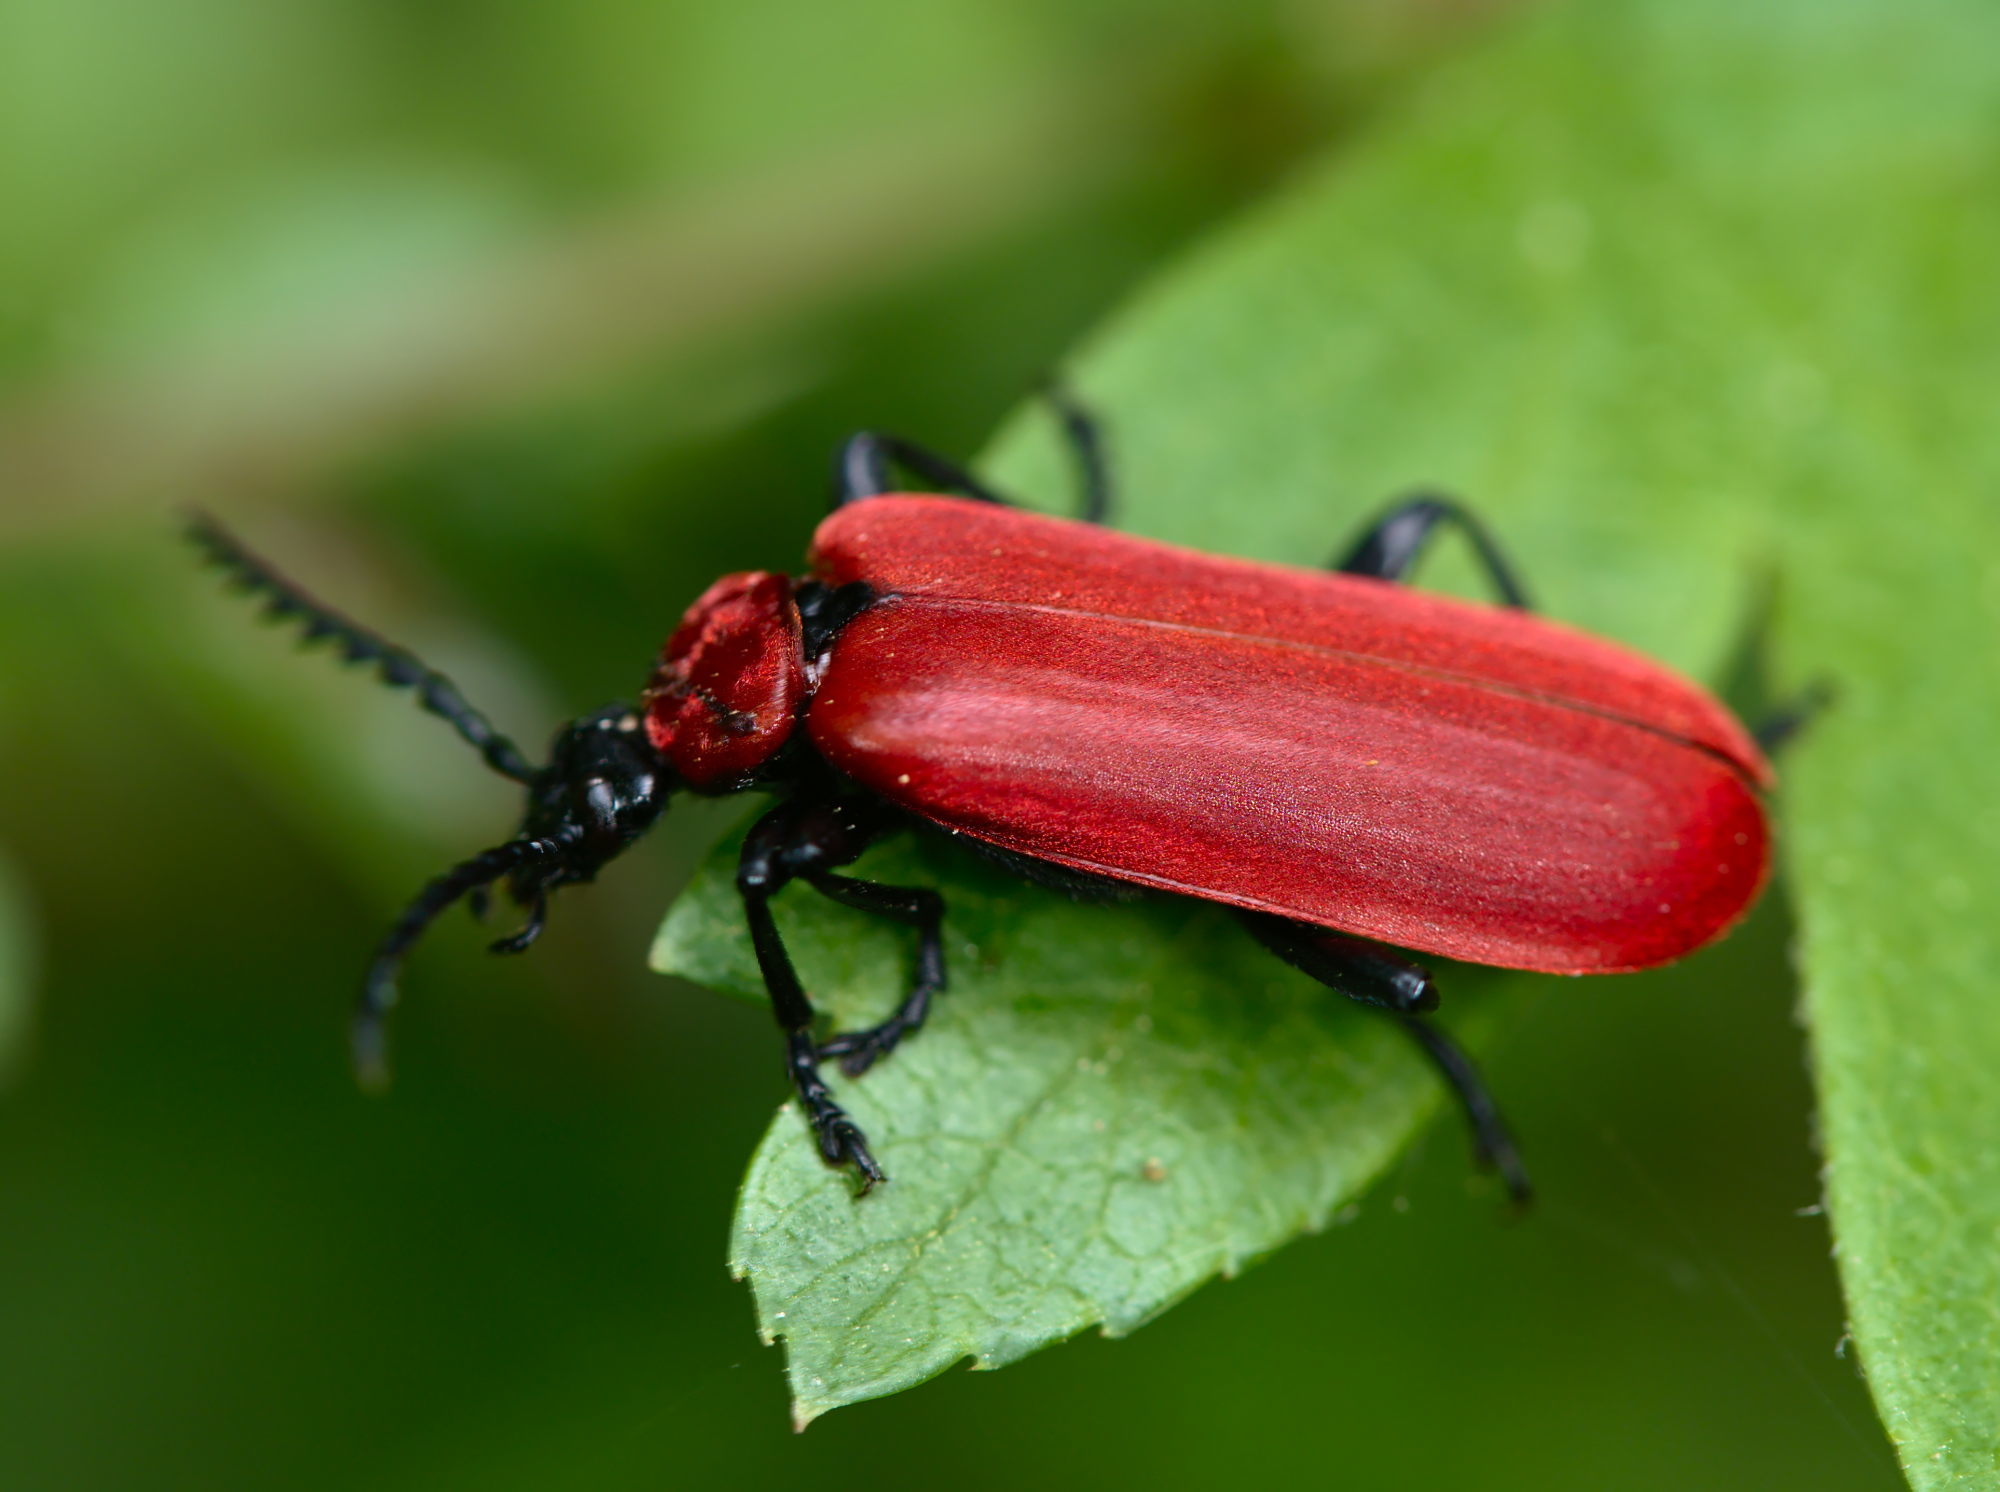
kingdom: Animalia
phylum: Arthropoda
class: Insecta
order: Coleoptera
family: Pyrochroidae
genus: Pyrochroa
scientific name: Pyrochroa coccinea
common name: Black-headed cardinal beetle
